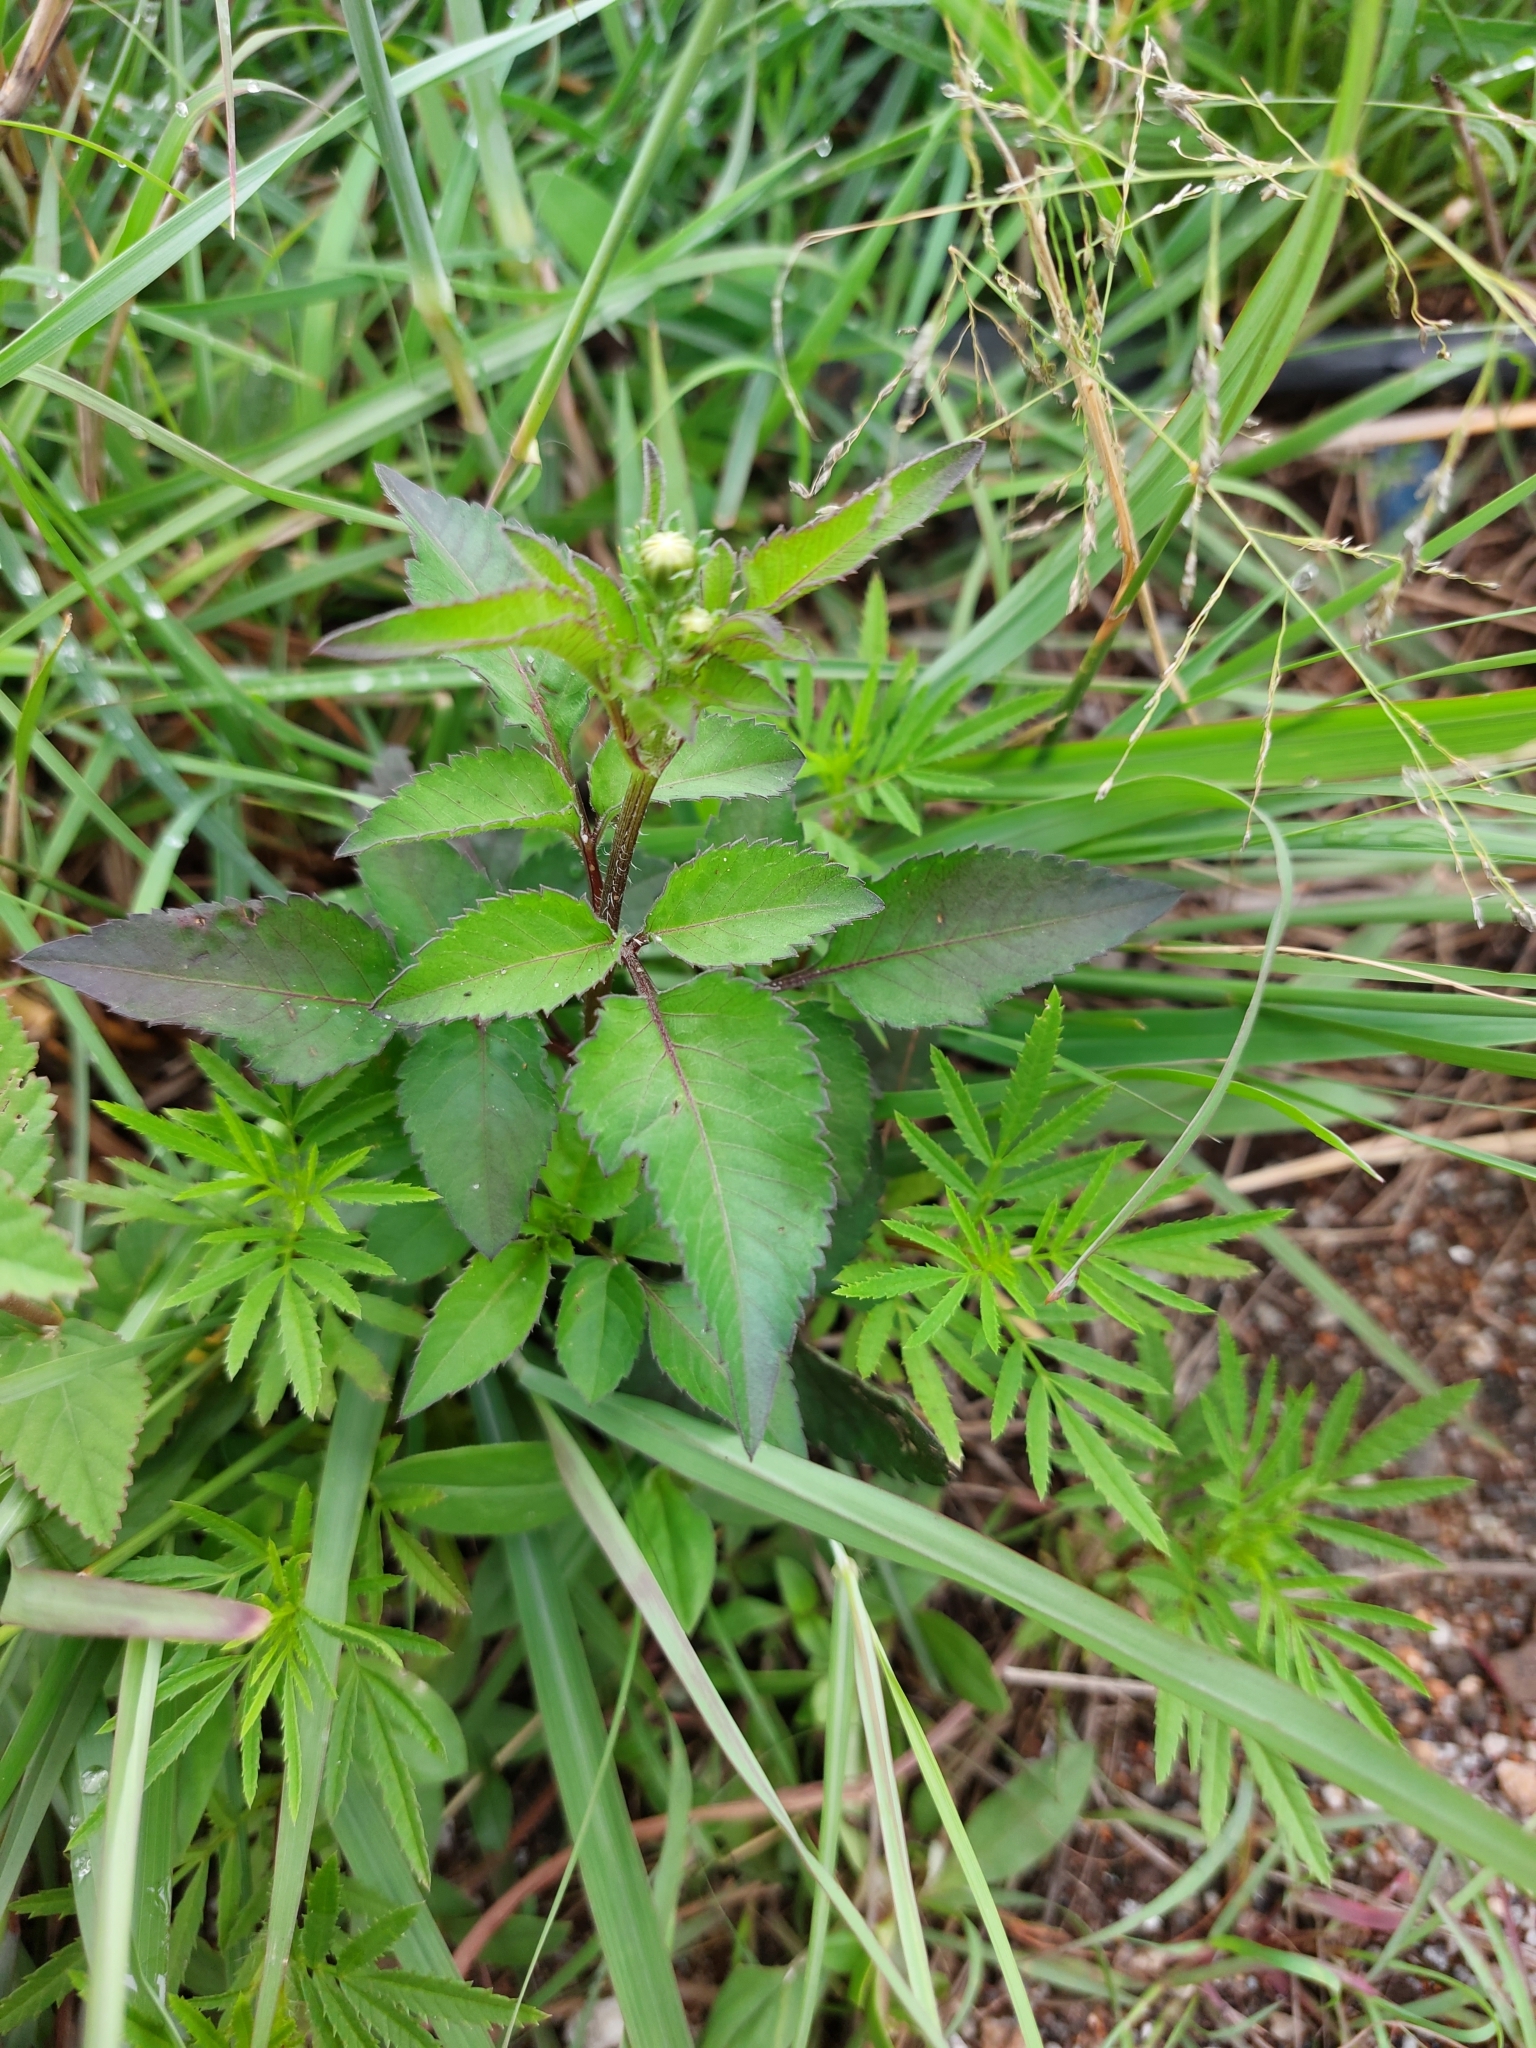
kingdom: Plantae
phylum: Tracheophyta
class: Magnoliopsida
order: Asterales
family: Asteraceae
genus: Bidens
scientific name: Bidens pilosa
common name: Black-jack
